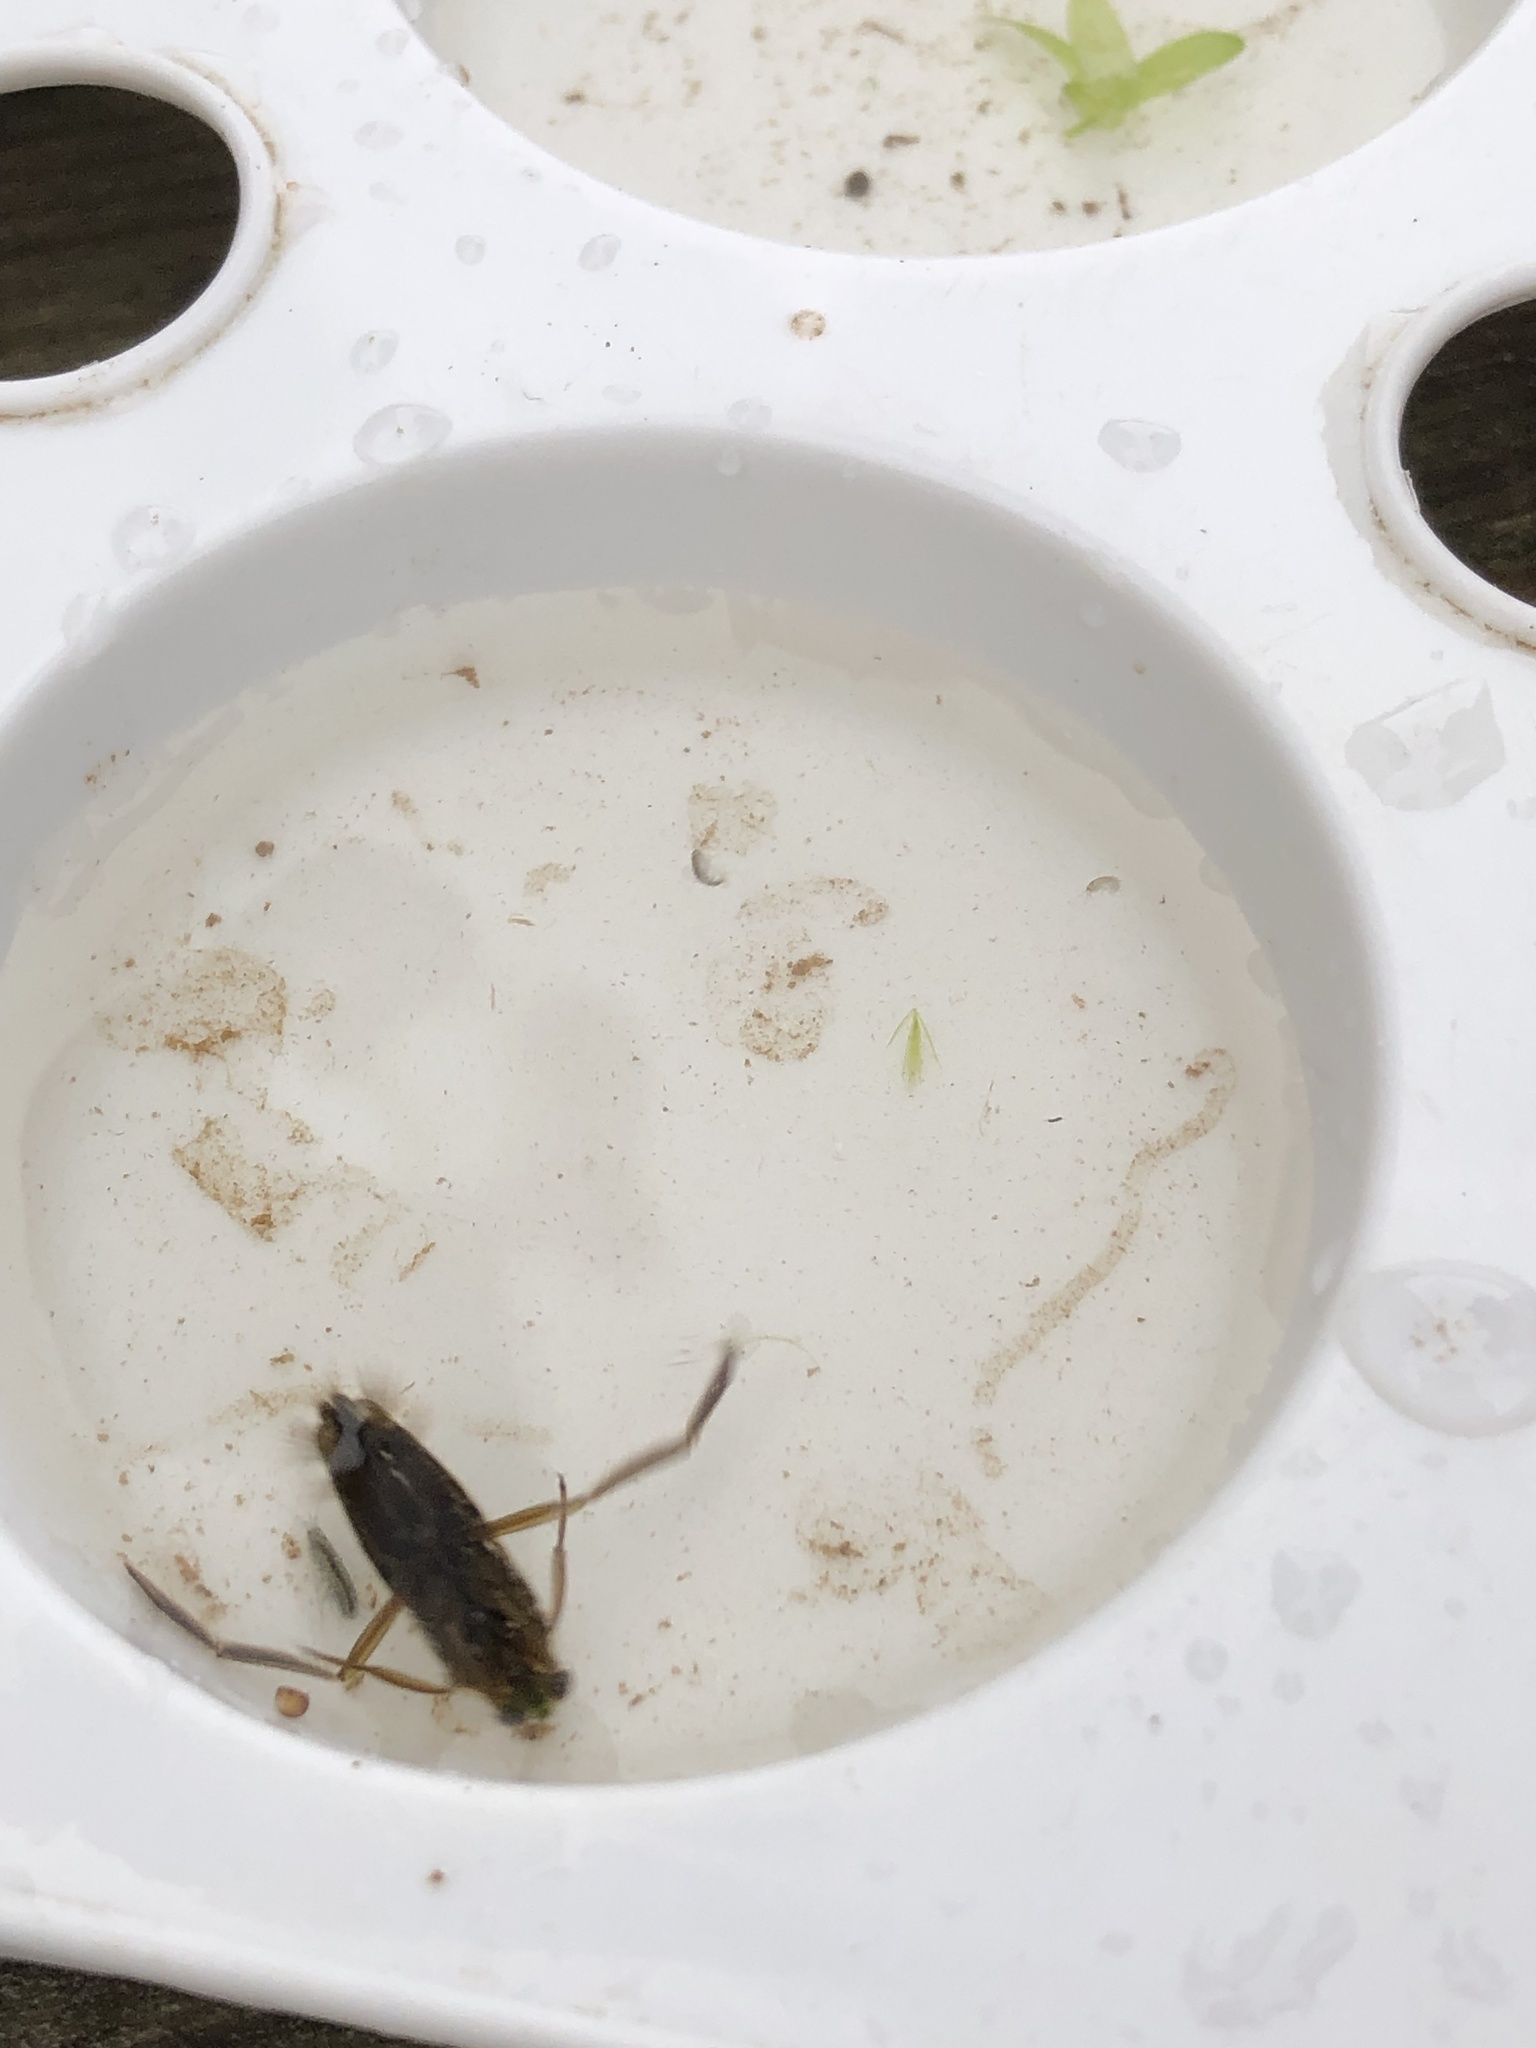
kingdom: Animalia
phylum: Arthropoda
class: Insecta
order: Hemiptera
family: Notonectidae
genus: Notonecta
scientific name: Notonecta
